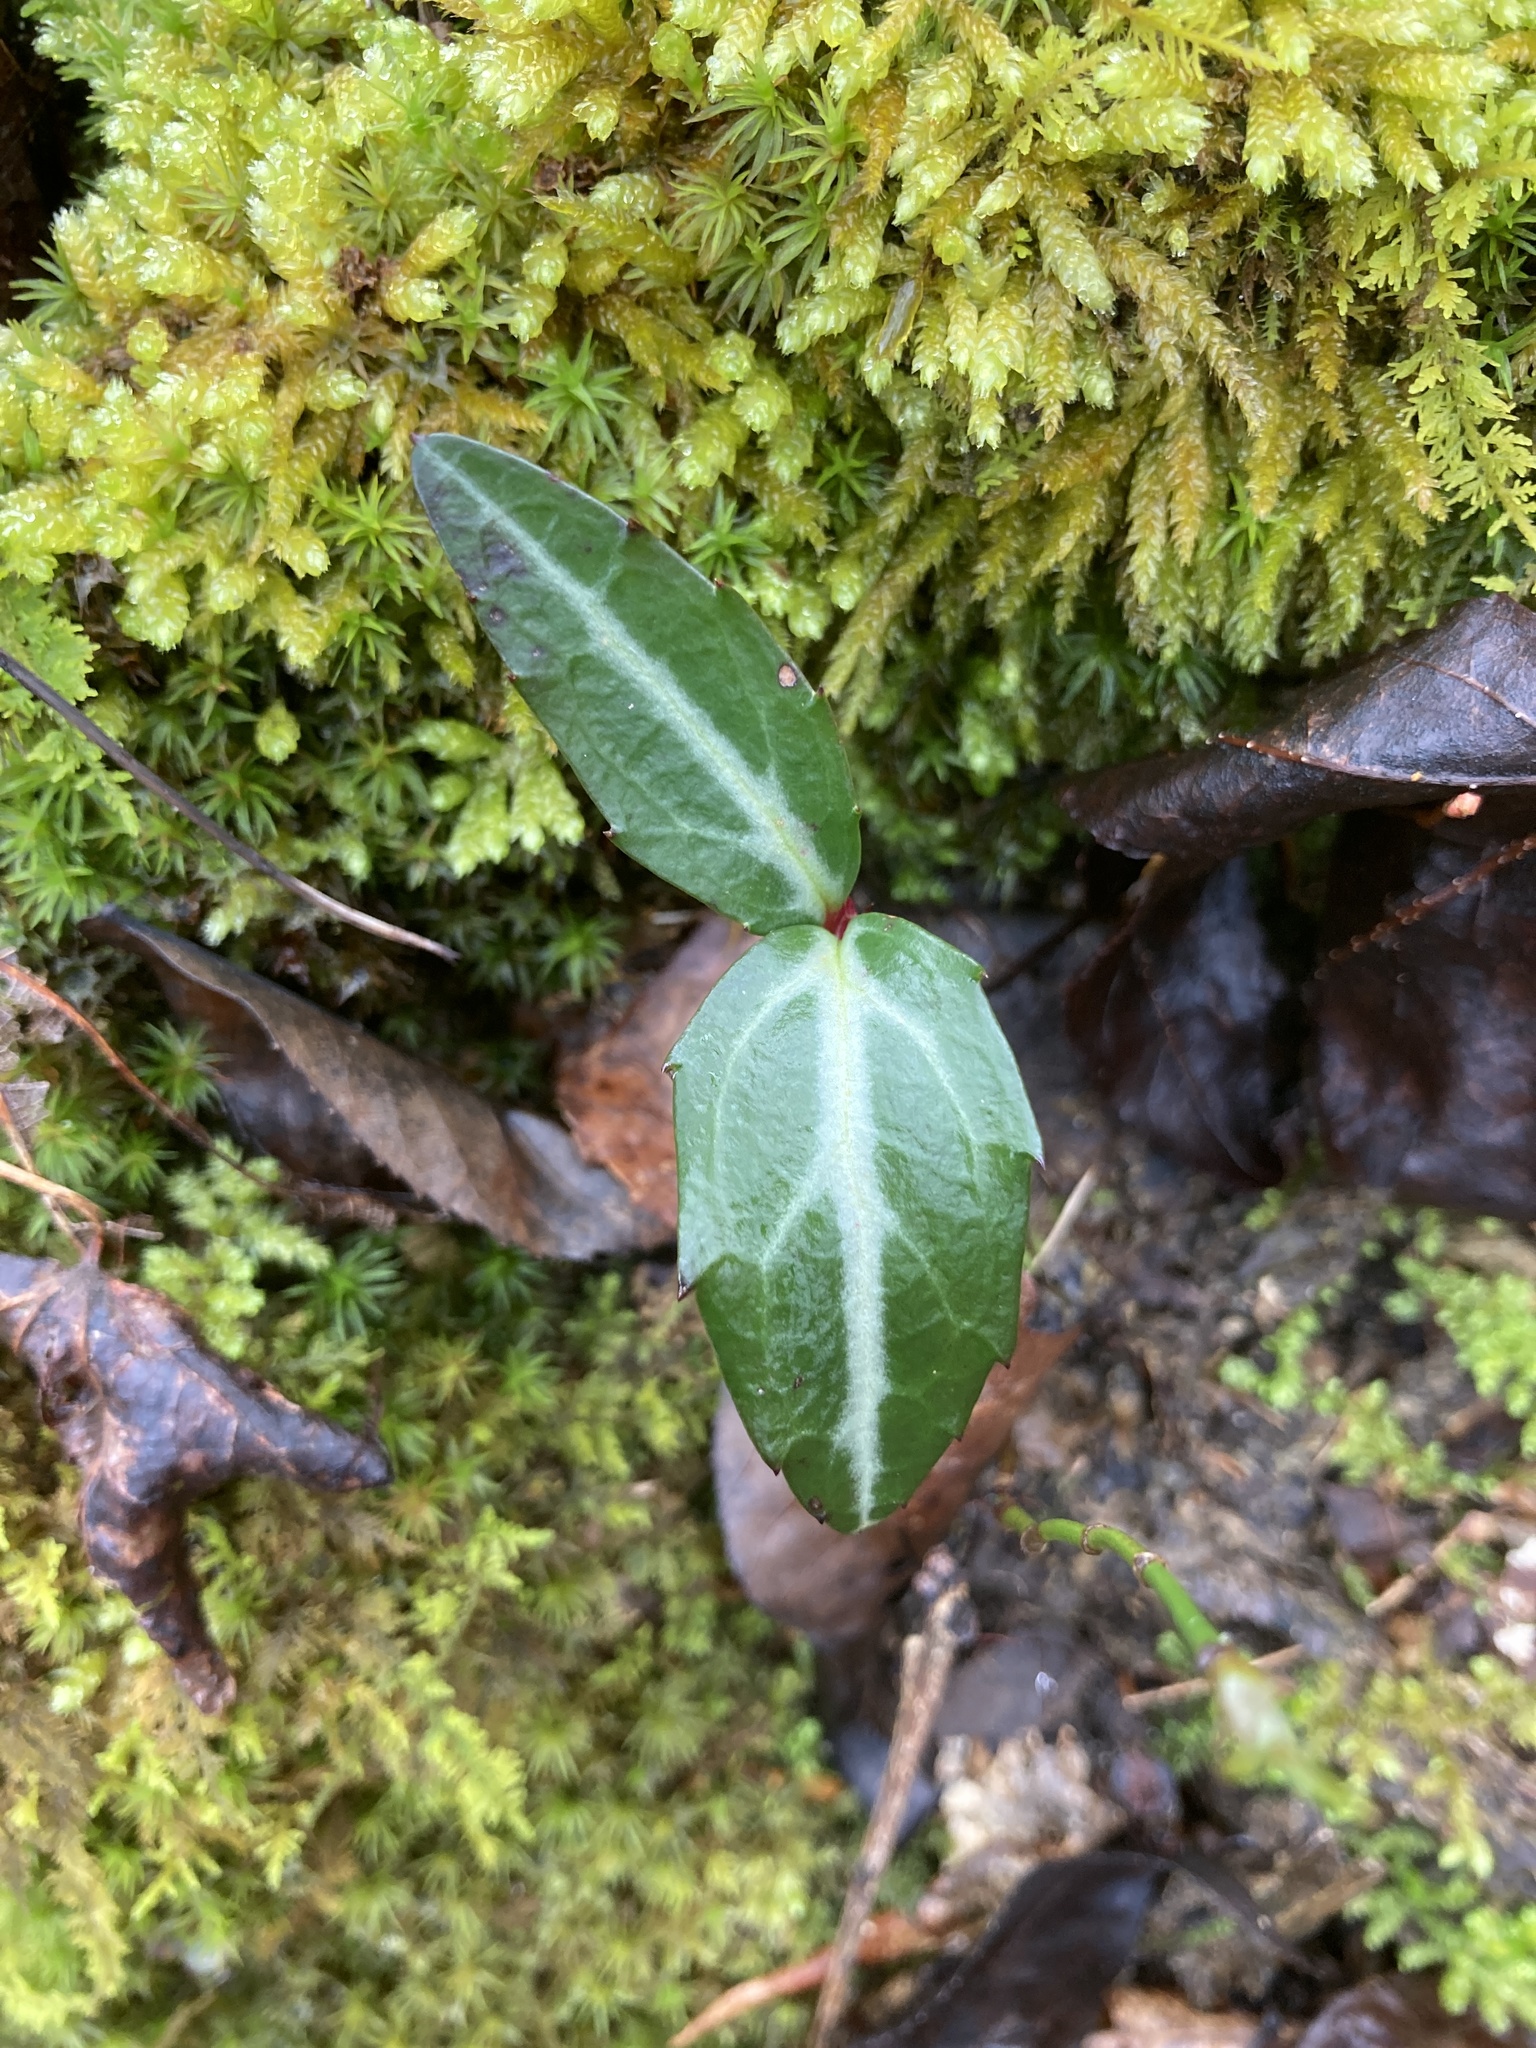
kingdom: Plantae
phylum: Tracheophyta
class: Magnoliopsida
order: Ericales
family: Ericaceae
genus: Chimaphila
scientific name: Chimaphila maculata
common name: Spotted pipsissewa
